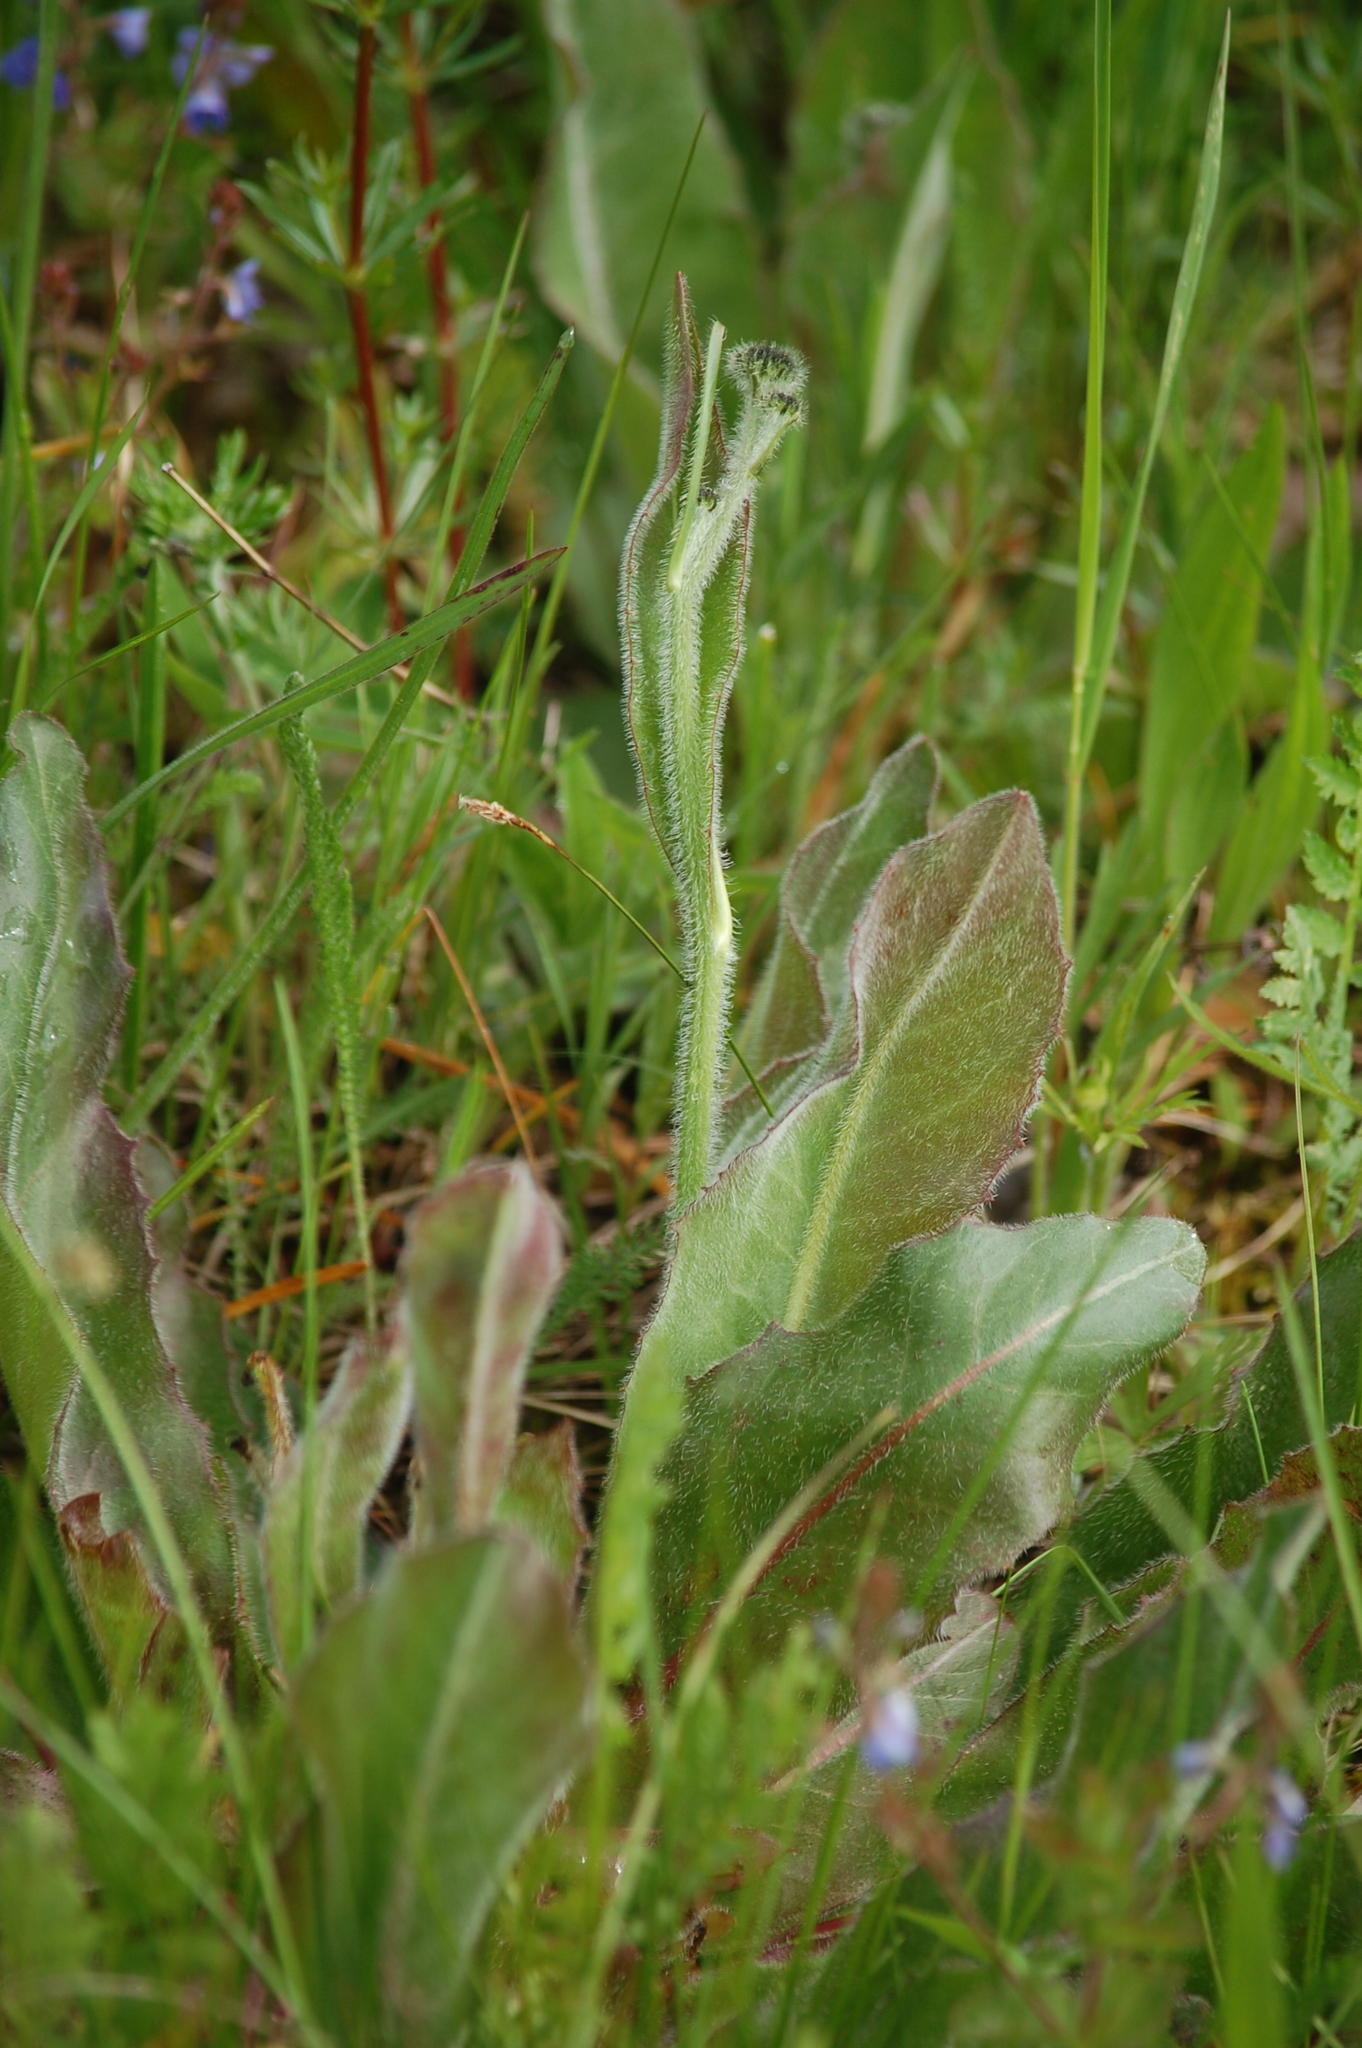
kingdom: Plantae
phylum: Tracheophyta
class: Magnoliopsida
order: Asterales
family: Asteraceae
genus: Trommsdorffia
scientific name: Trommsdorffia maculata
